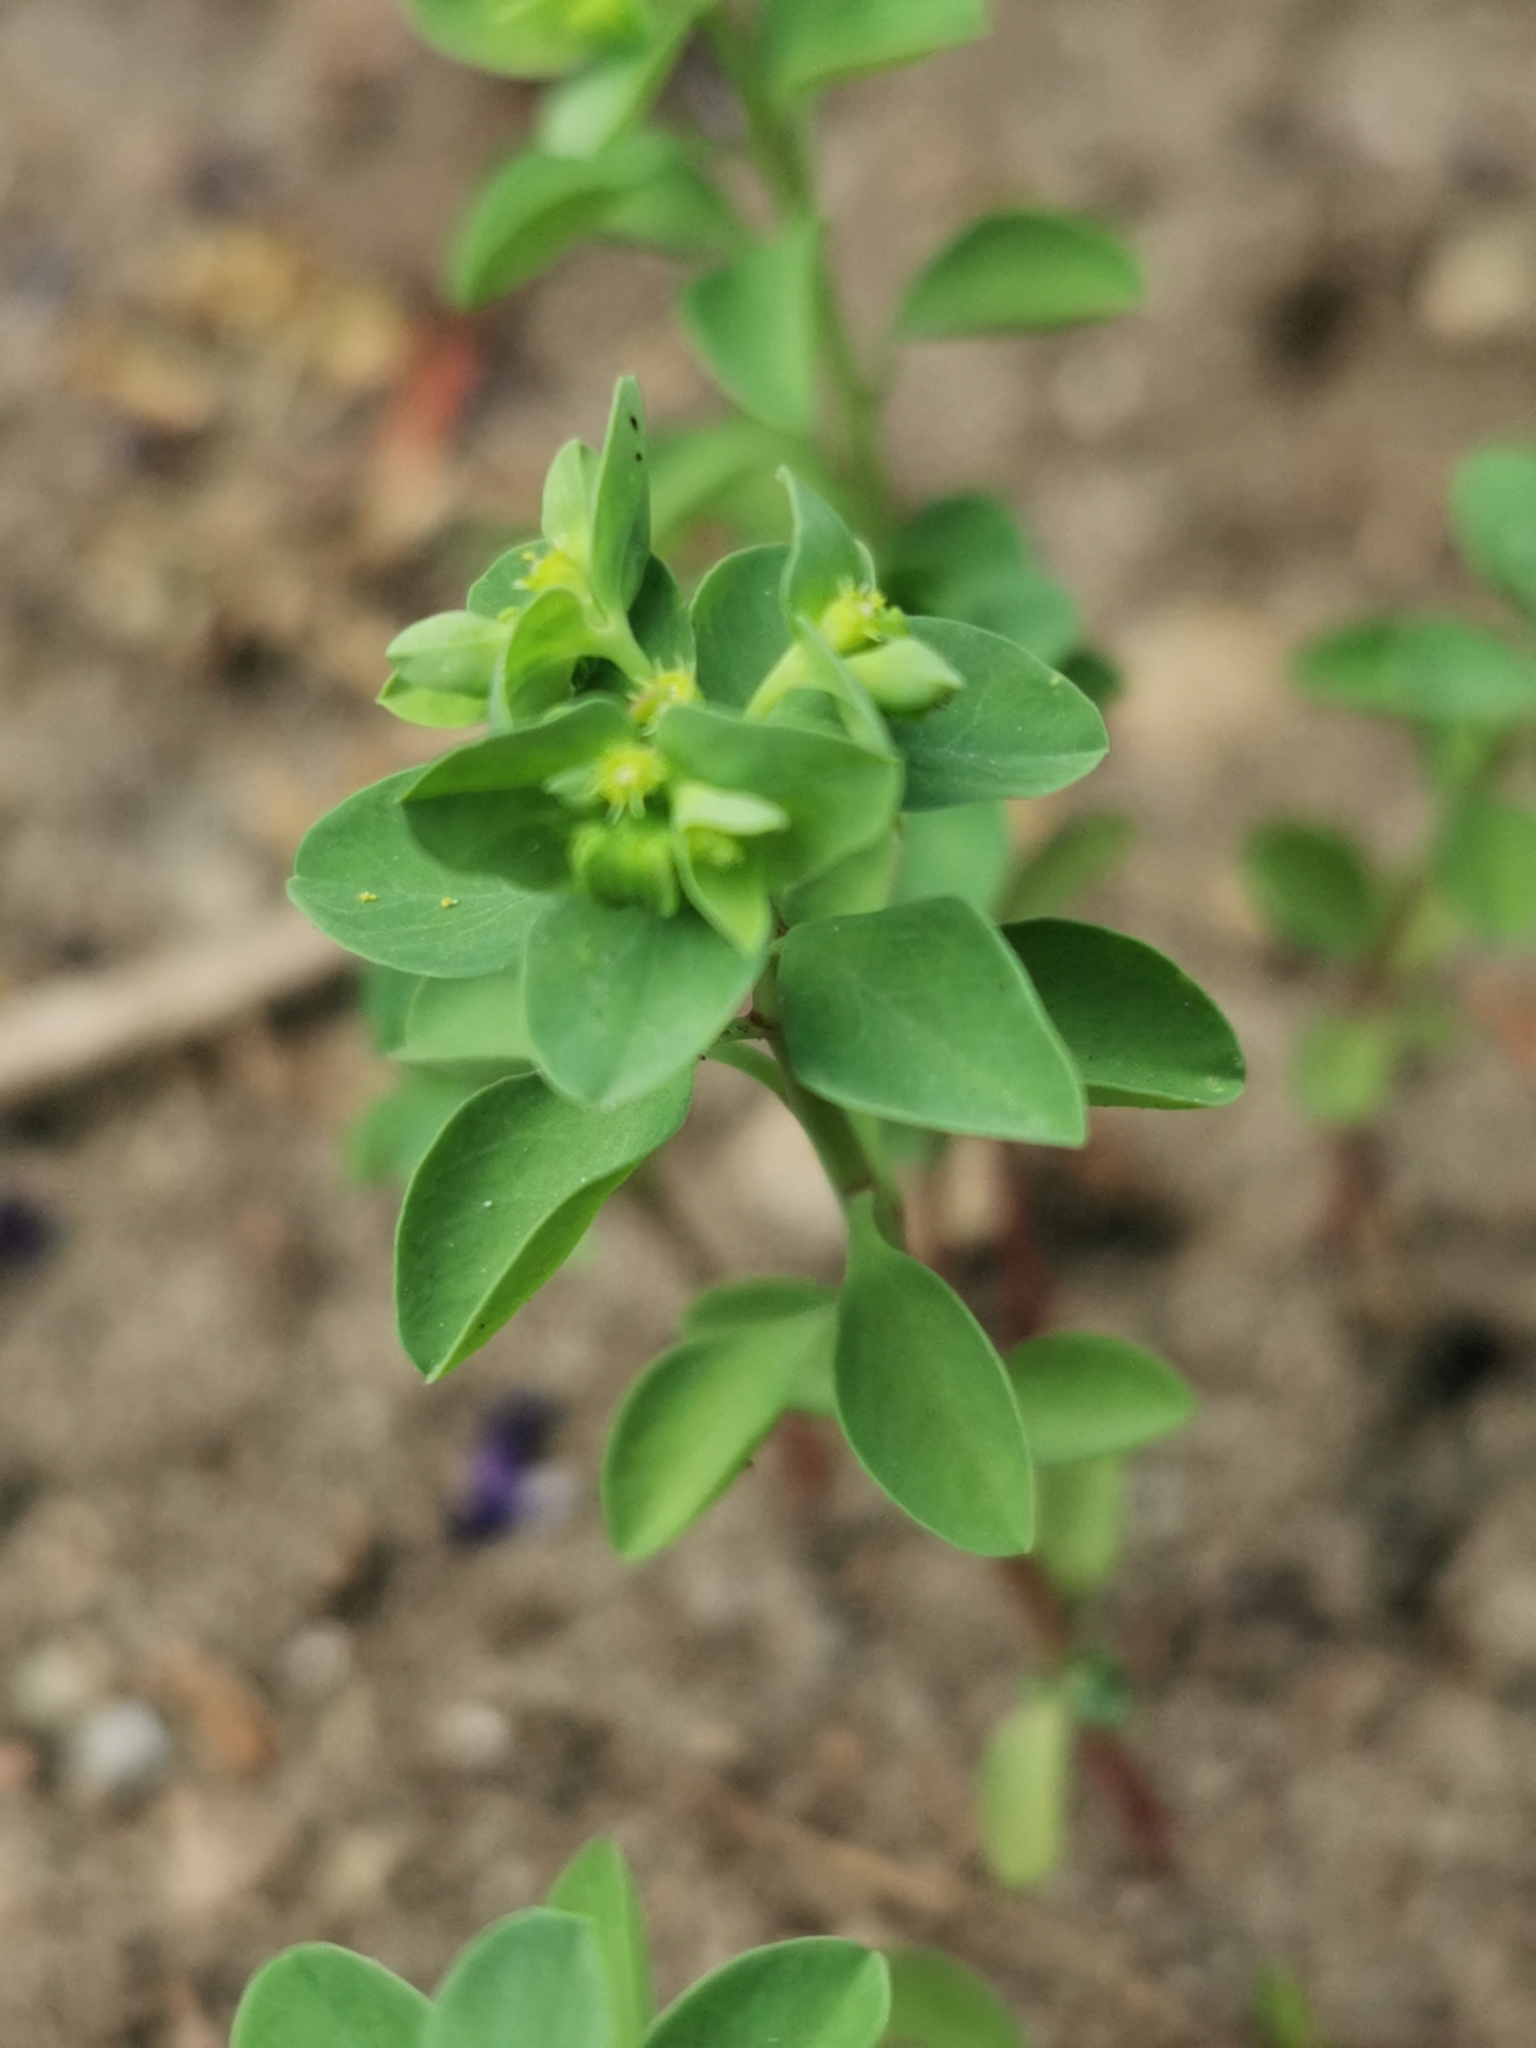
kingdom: Plantae
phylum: Tracheophyta
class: Magnoliopsida
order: Malpighiales
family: Euphorbiaceae
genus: Euphorbia
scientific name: Euphorbia peplus
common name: Petty spurge
